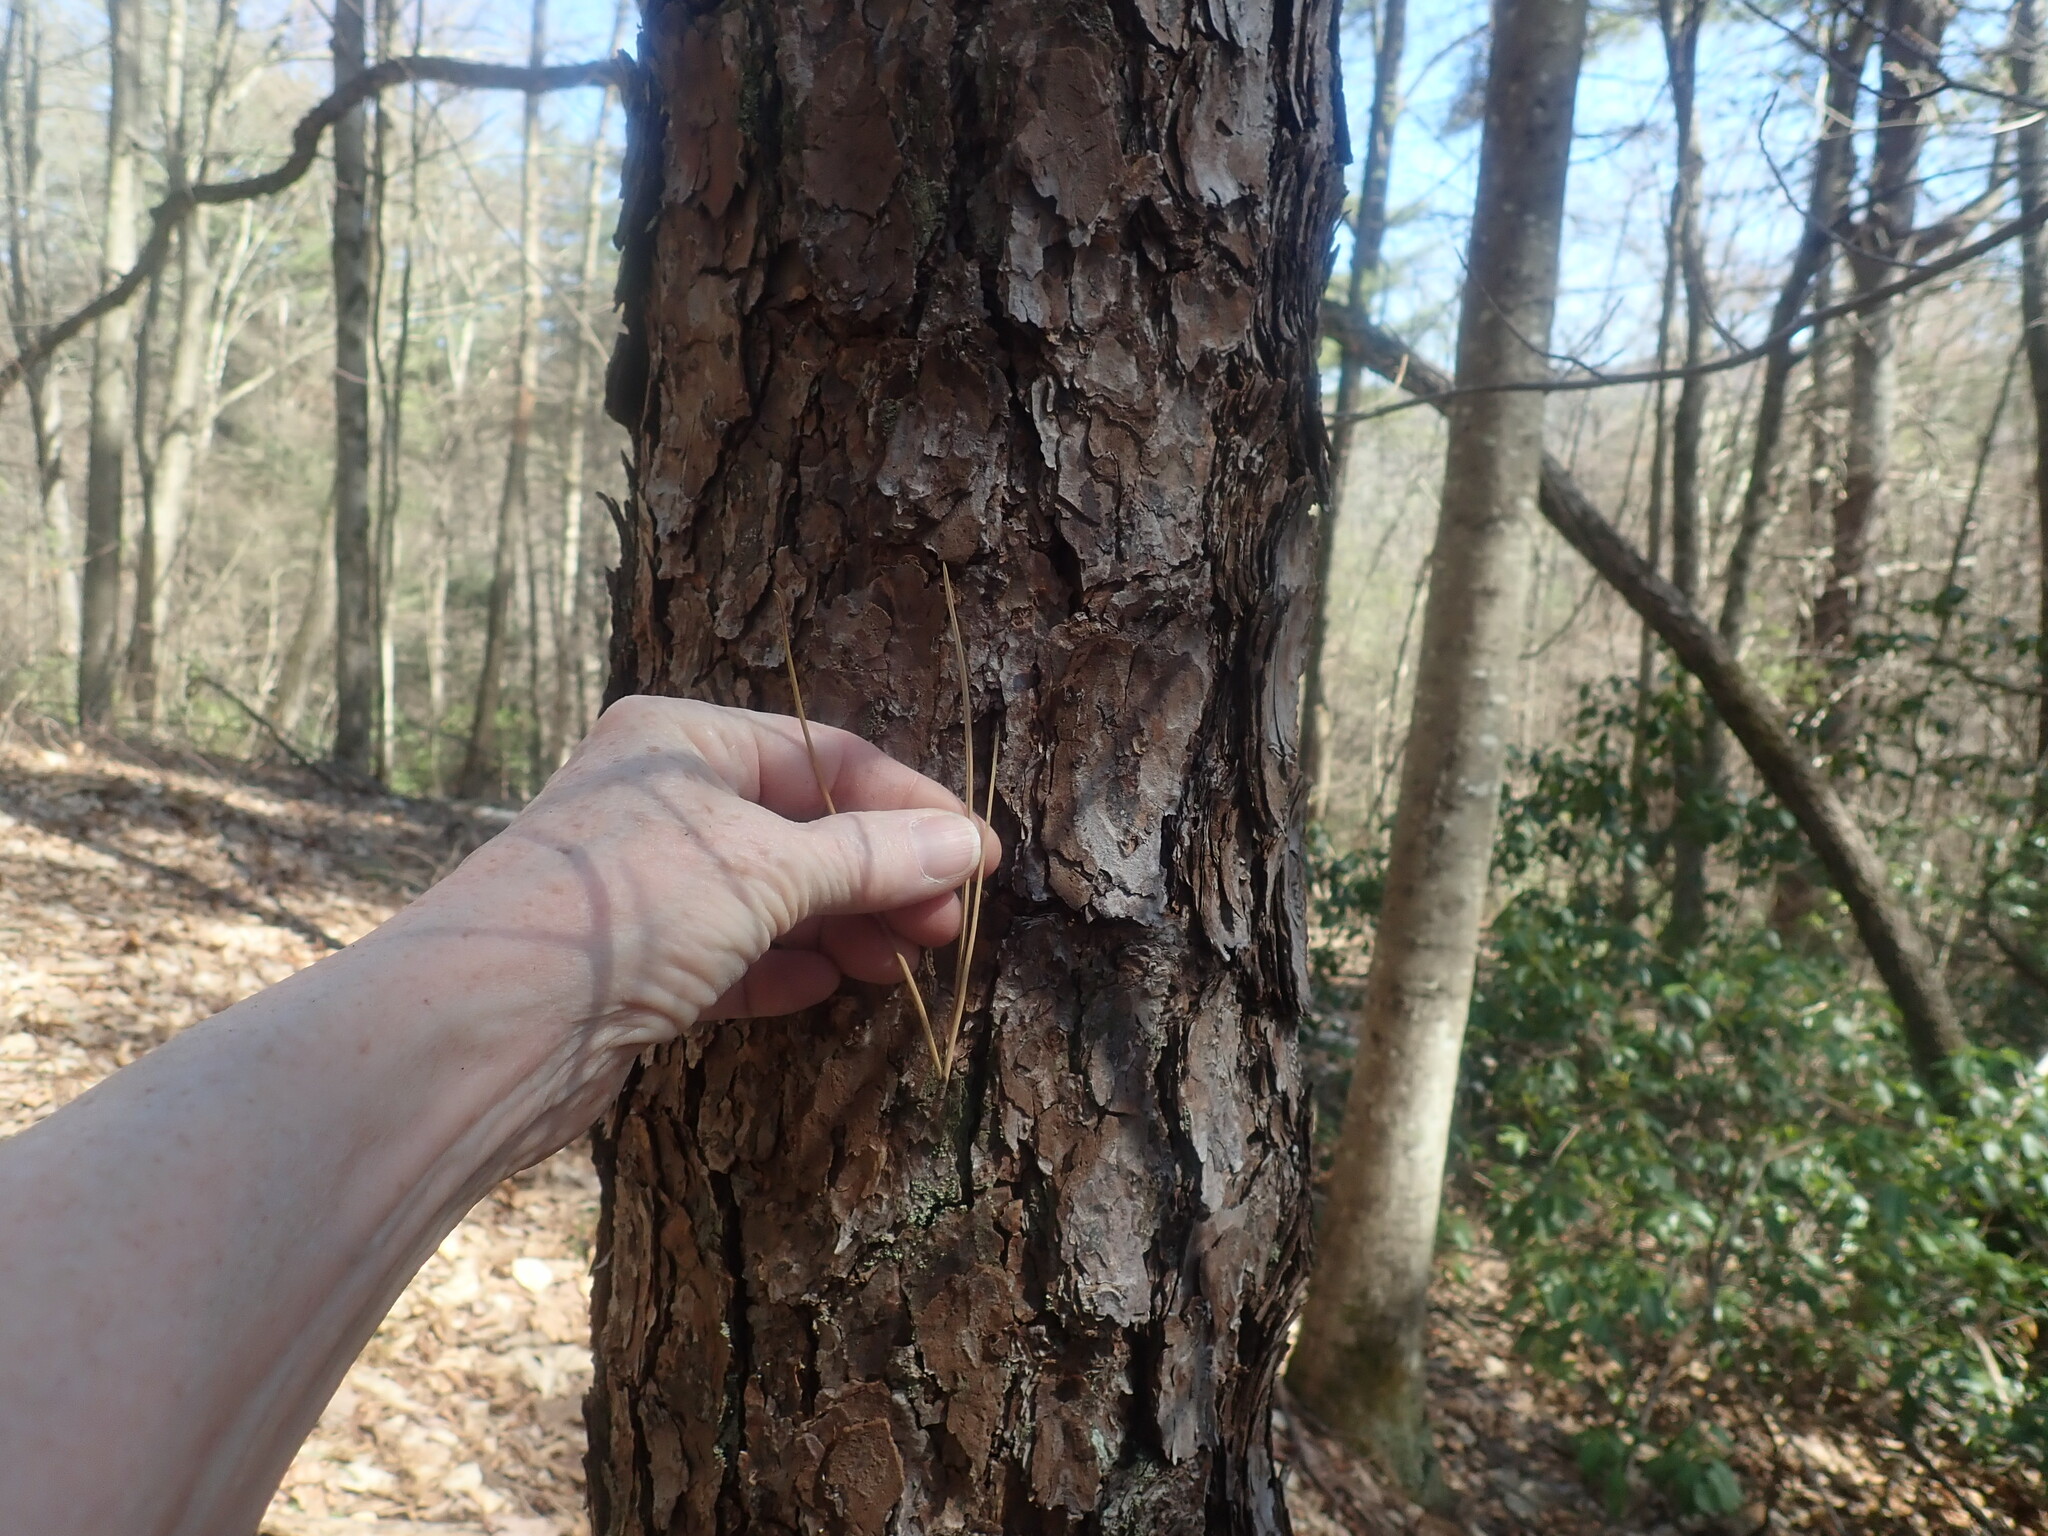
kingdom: Plantae
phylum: Tracheophyta
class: Pinopsida
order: Pinales
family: Pinaceae
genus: Pinus
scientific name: Pinus rigida
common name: Pitch pine
